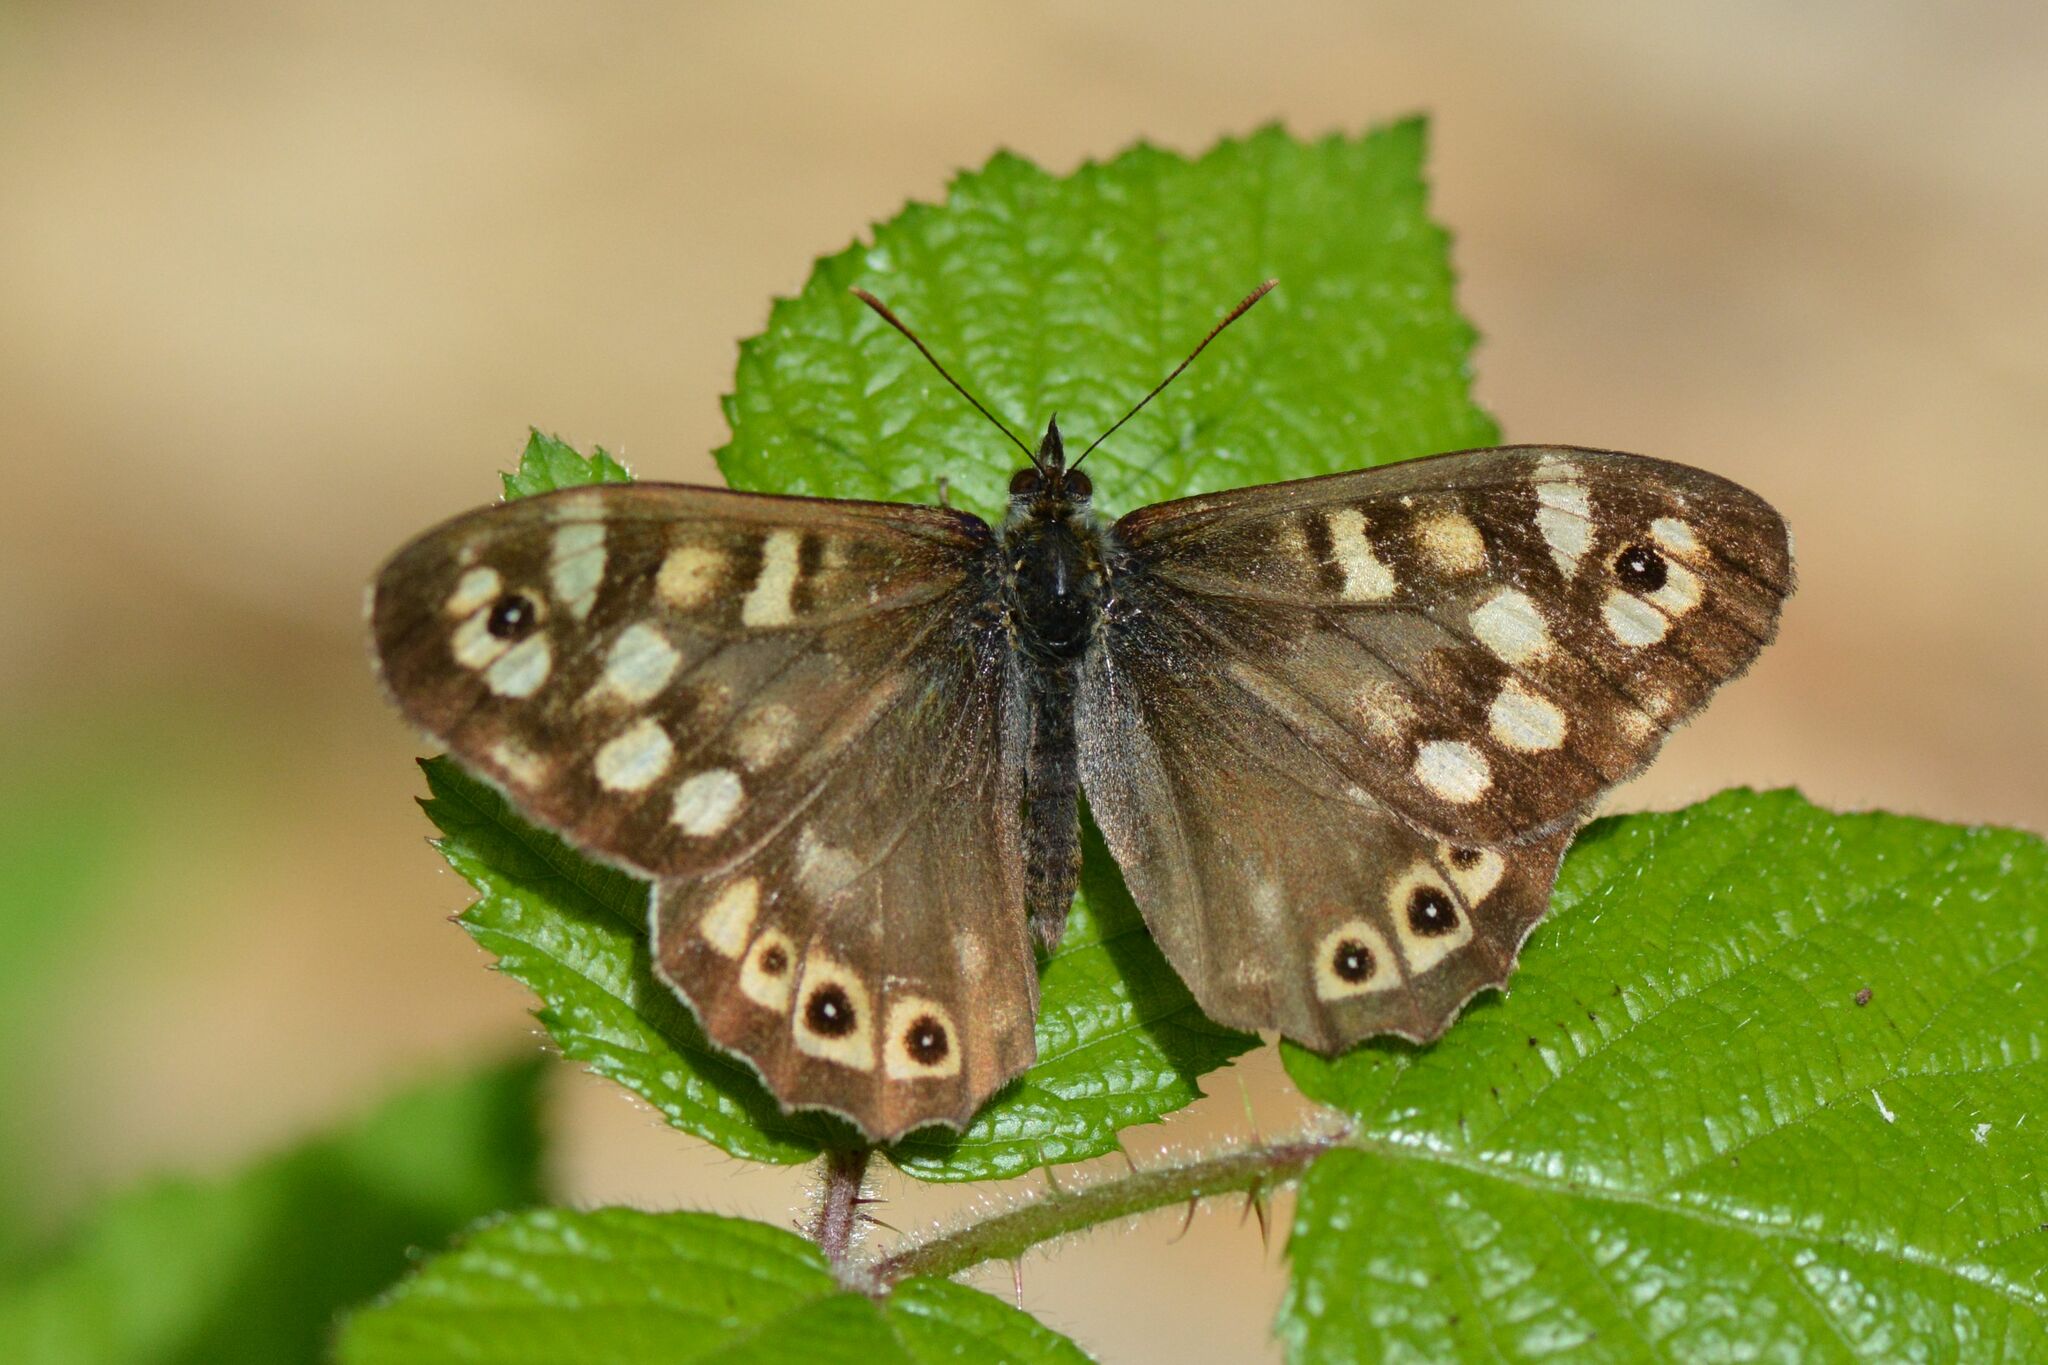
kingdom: Animalia
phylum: Arthropoda
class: Insecta
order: Lepidoptera
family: Nymphalidae
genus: Pararge
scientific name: Pararge aegeria
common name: Speckled wood
